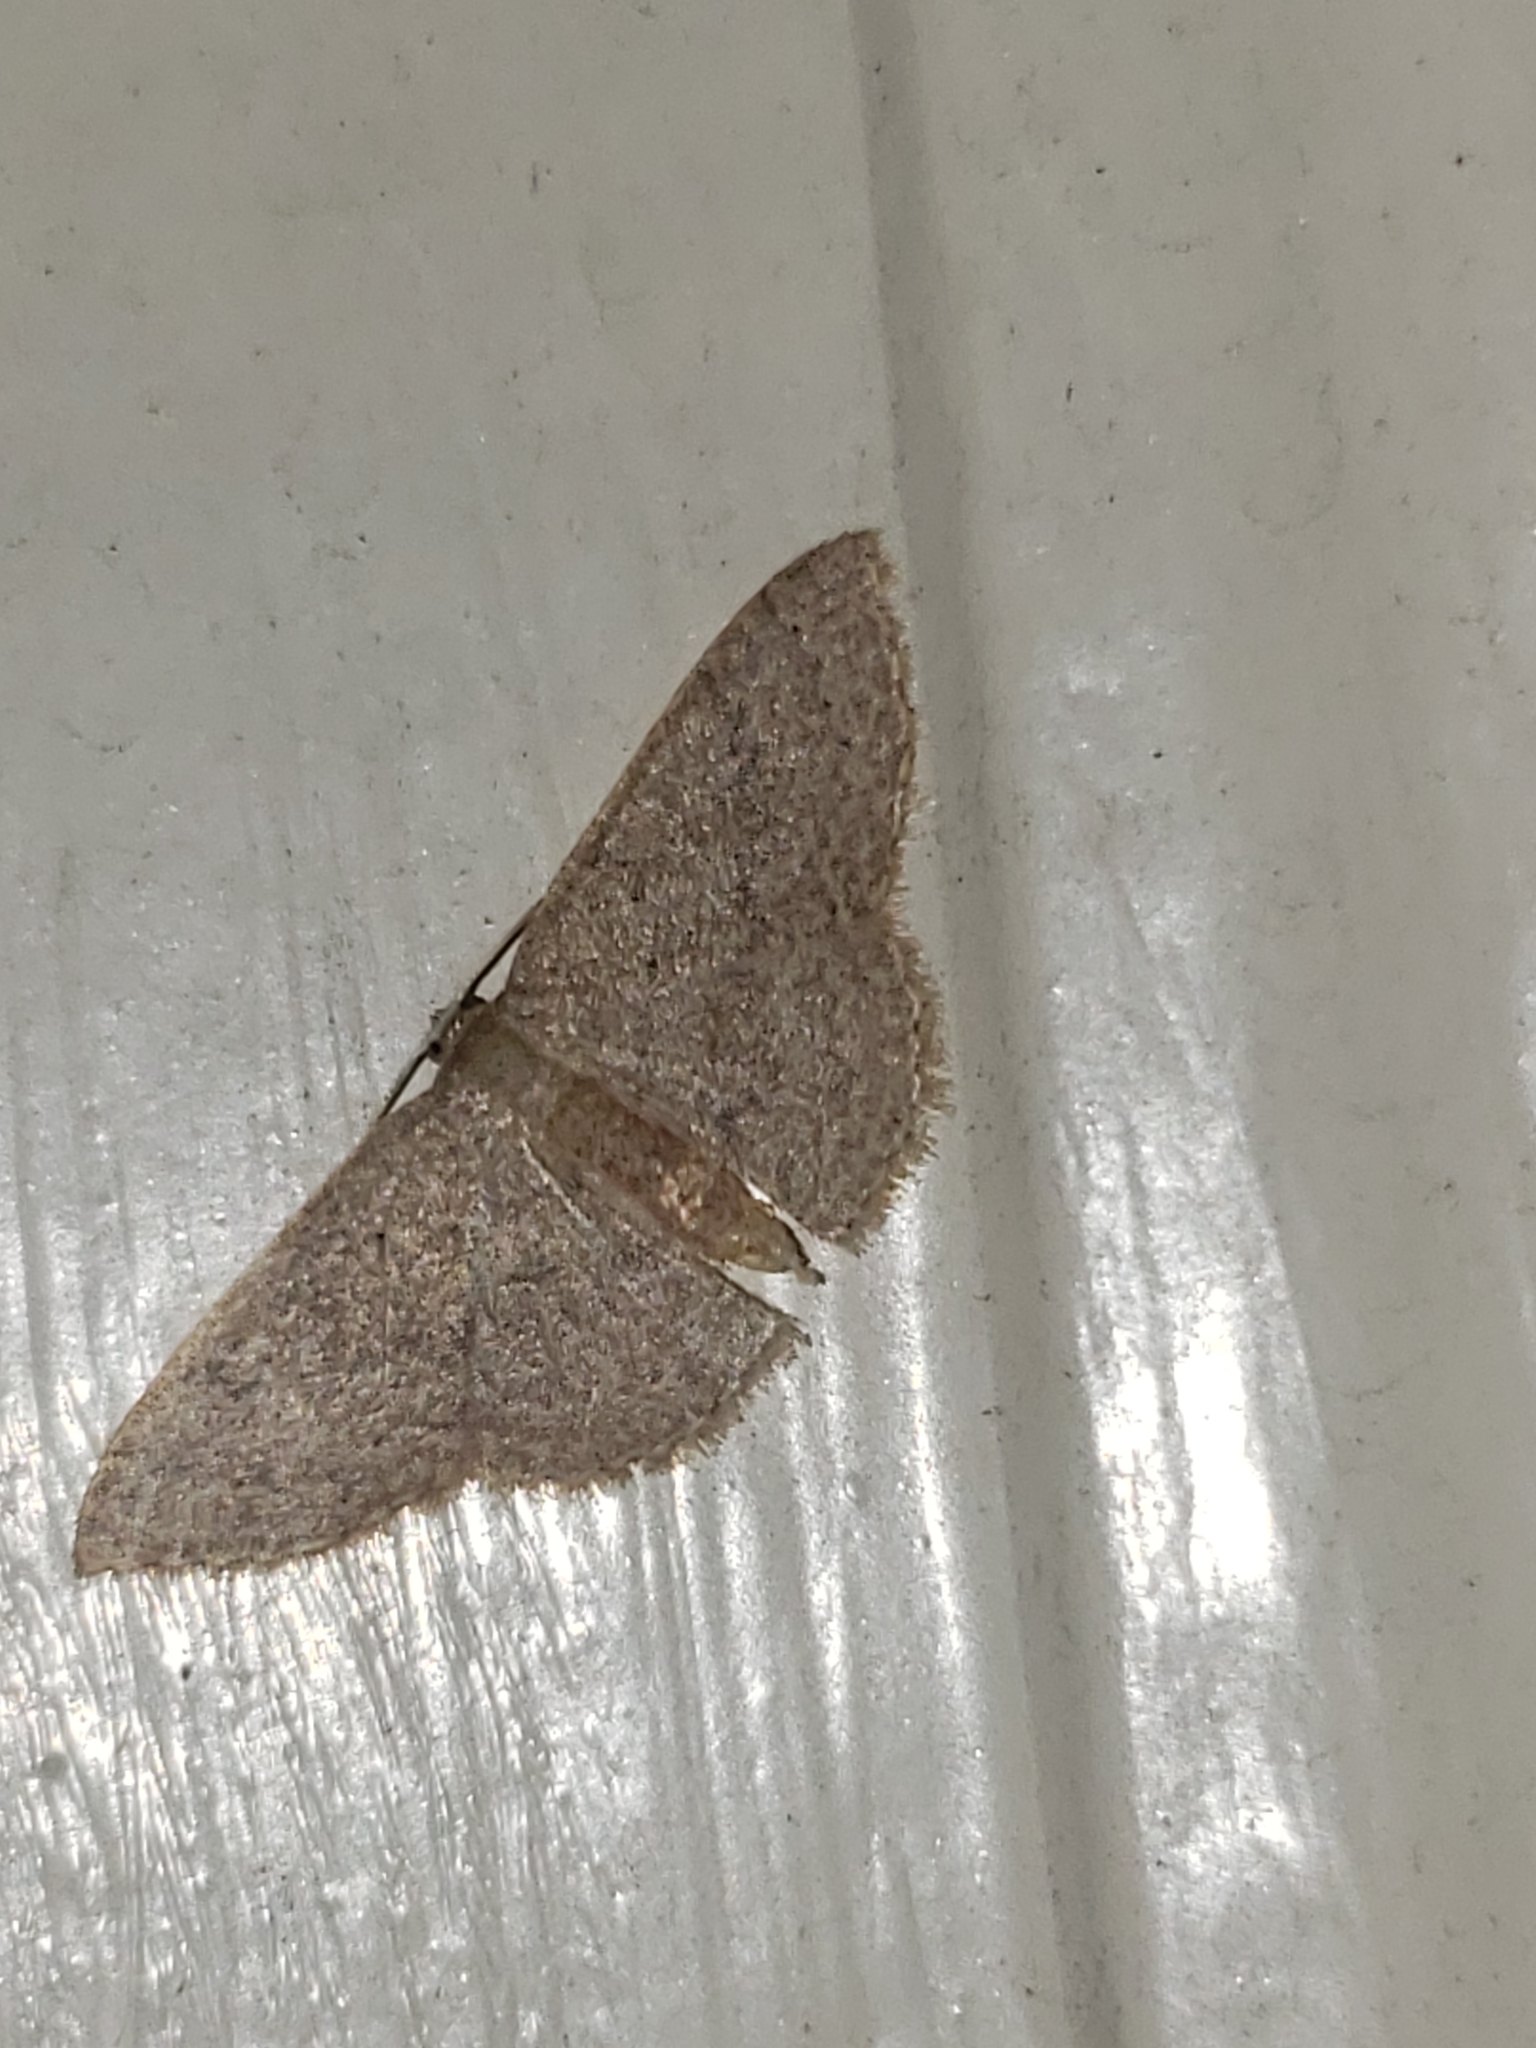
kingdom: Animalia
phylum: Arthropoda
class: Insecta
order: Lepidoptera
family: Geometridae
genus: Pleuroprucha
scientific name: Pleuroprucha insulsaria
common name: Common tan wave
